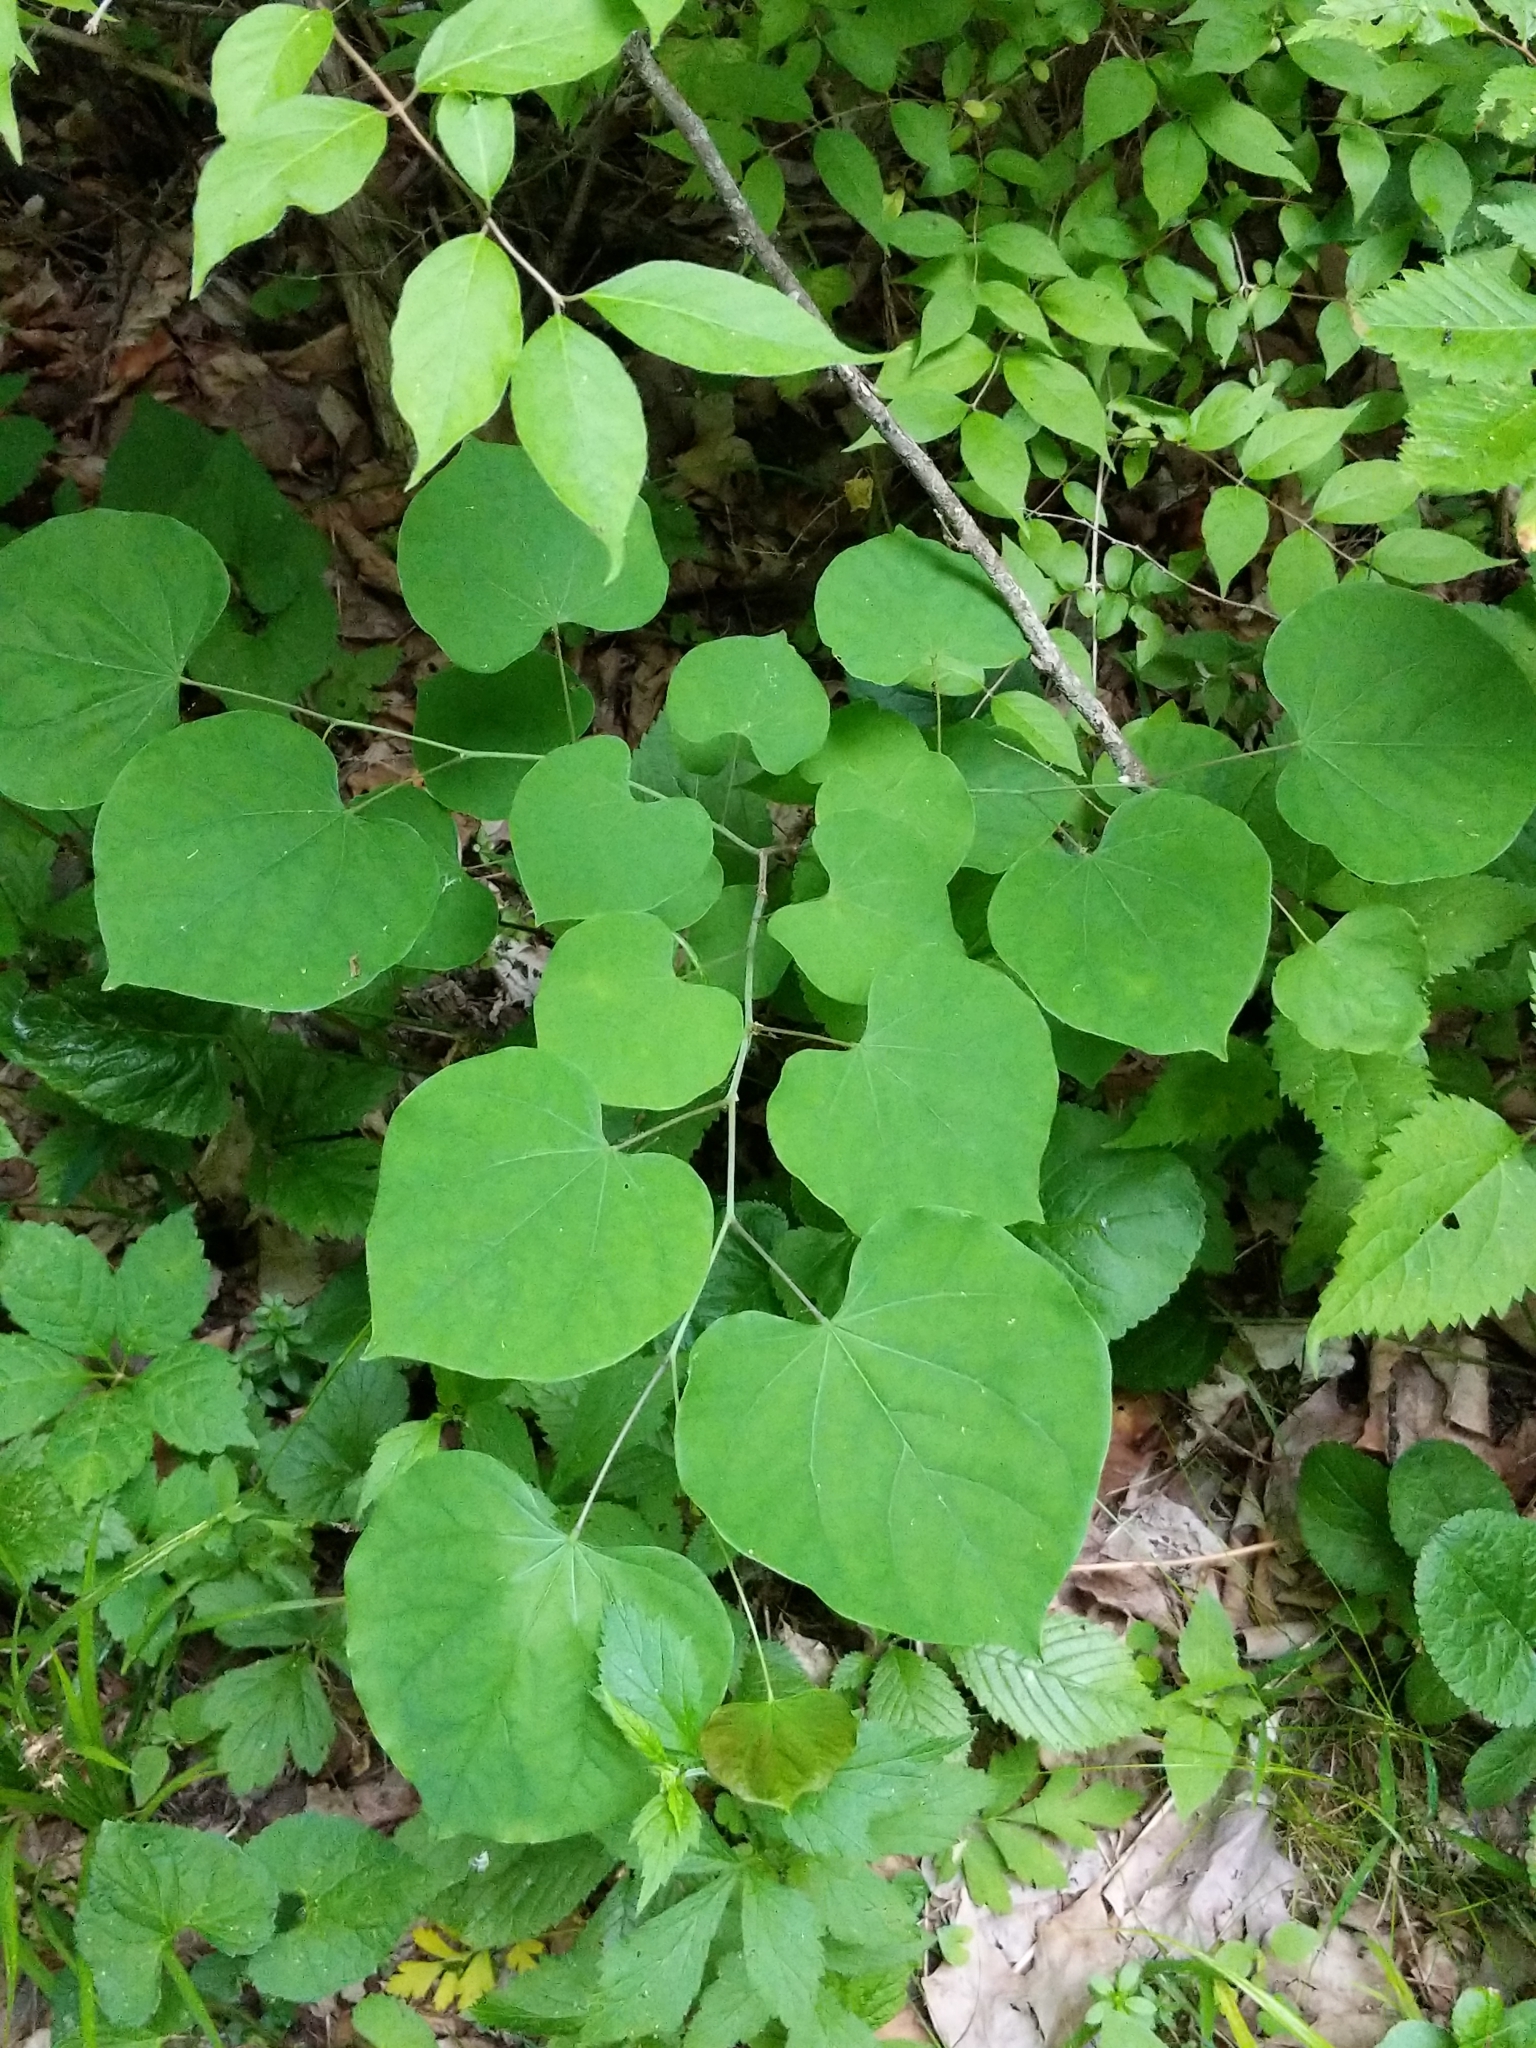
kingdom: Plantae
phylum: Tracheophyta
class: Magnoliopsida
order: Fabales
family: Fabaceae
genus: Cercis
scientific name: Cercis canadensis
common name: Eastern redbud
